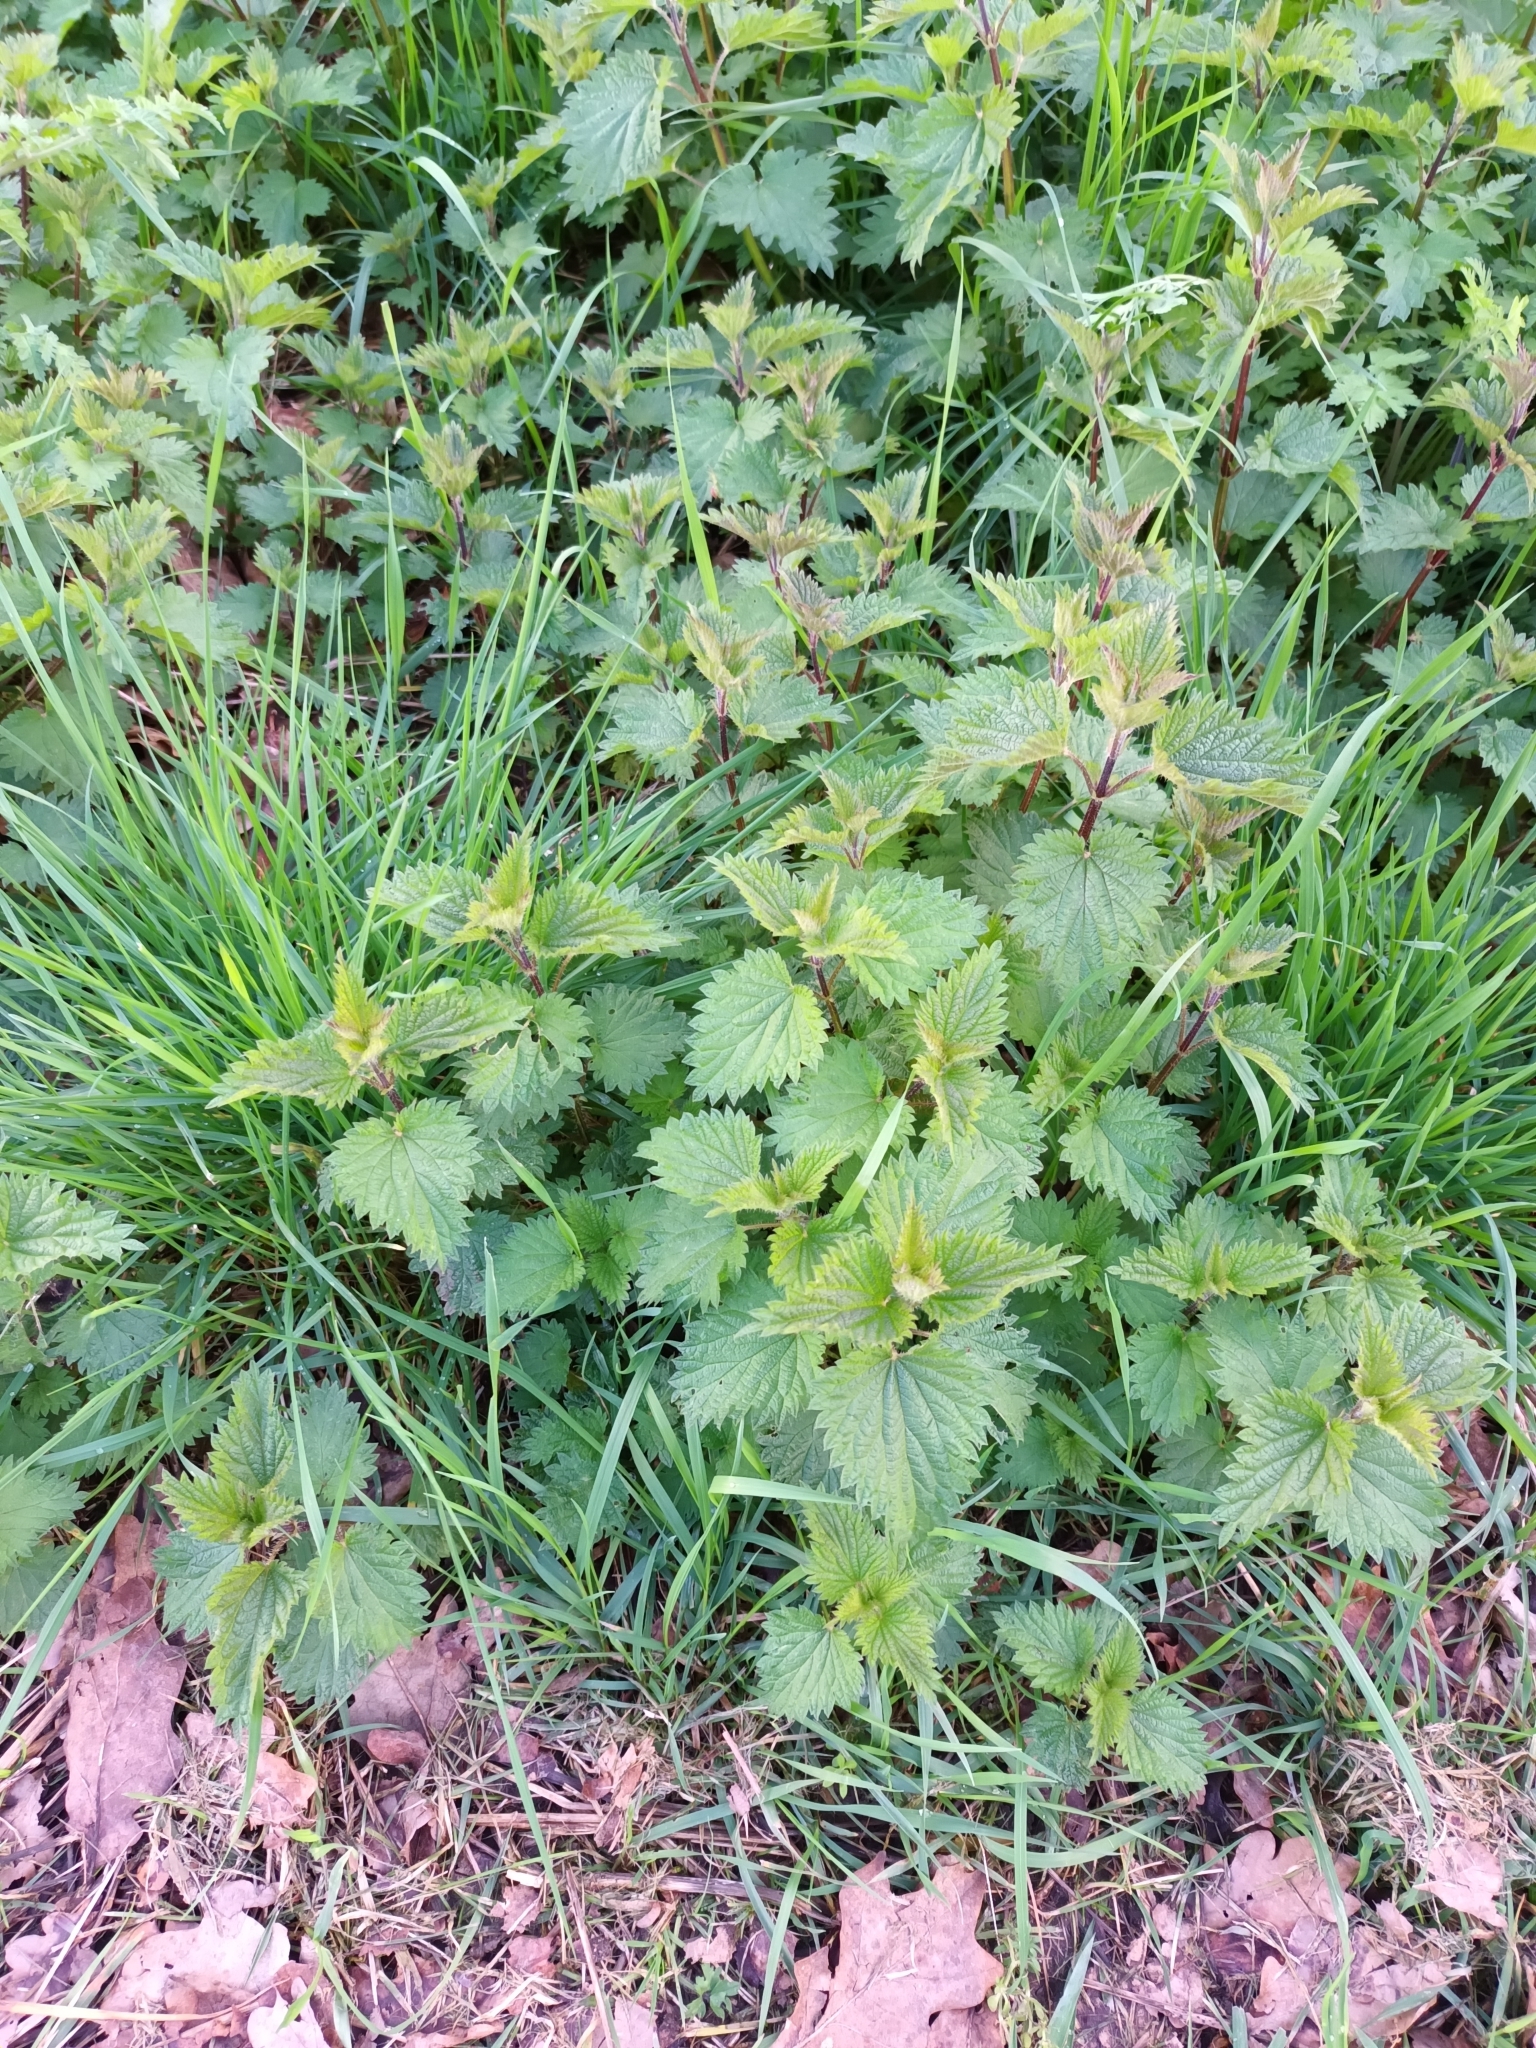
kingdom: Plantae
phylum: Tracheophyta
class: Magnoliopsida
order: Rosales
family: Urticaceae
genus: Urtica
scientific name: Urtica dioica
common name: Common nettle
